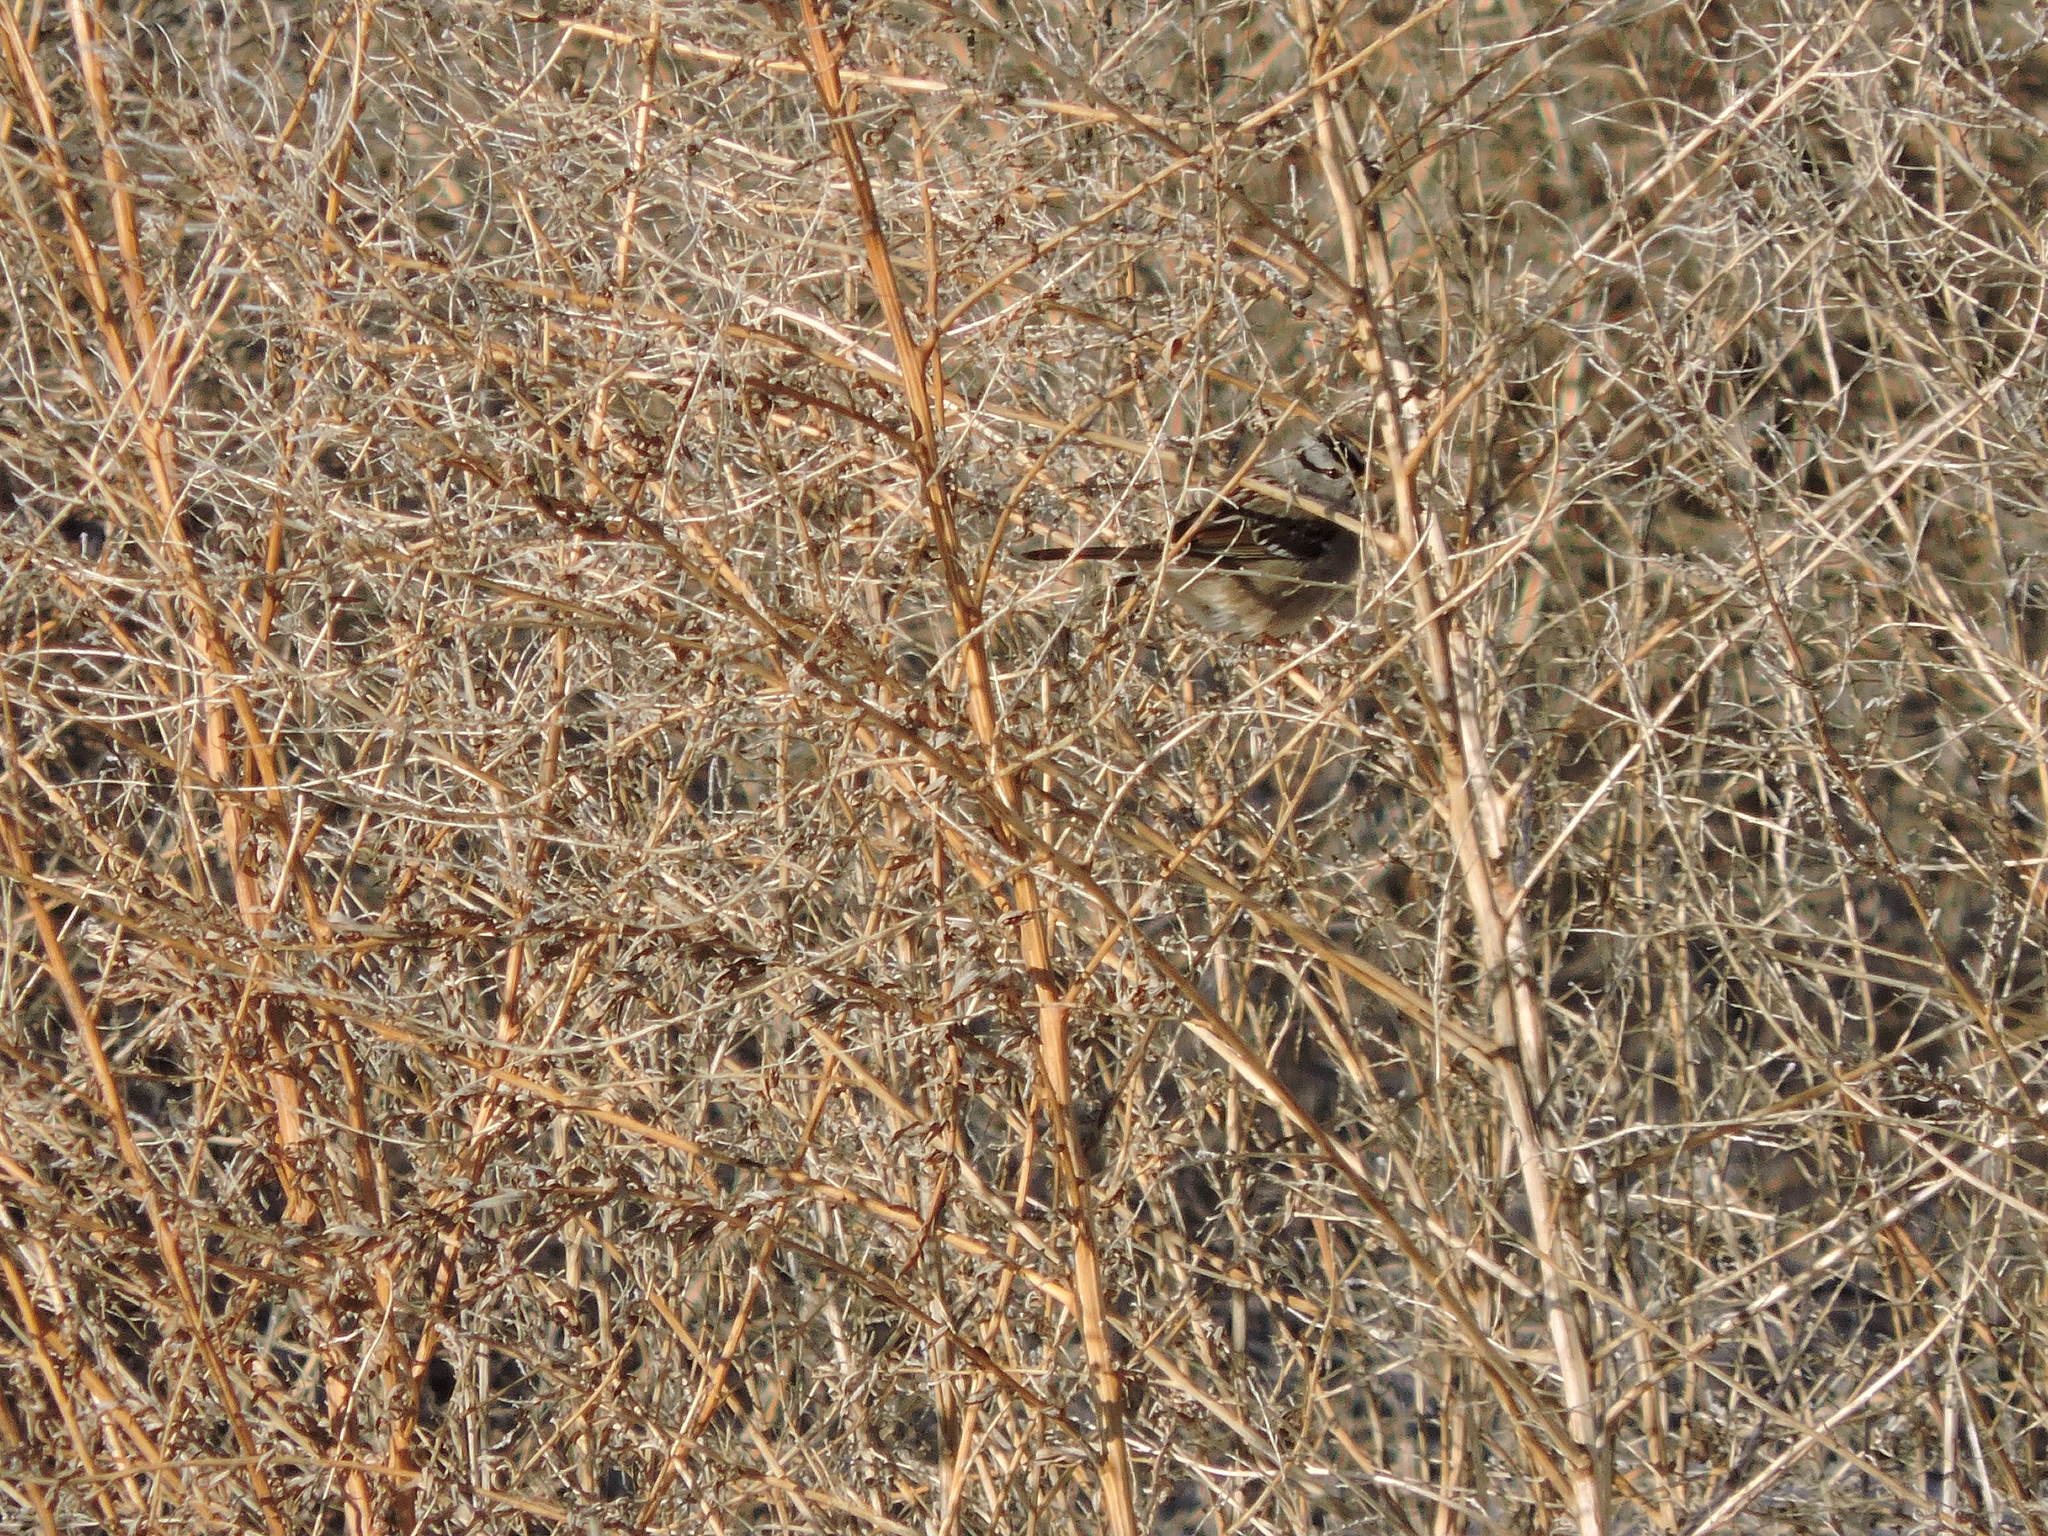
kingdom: Animalia
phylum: Chordata
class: Aves
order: Passeriformes
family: Passerellidae
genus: Zonotrichia
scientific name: Zonotrichia leucophrys
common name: White-crowned sparrow
